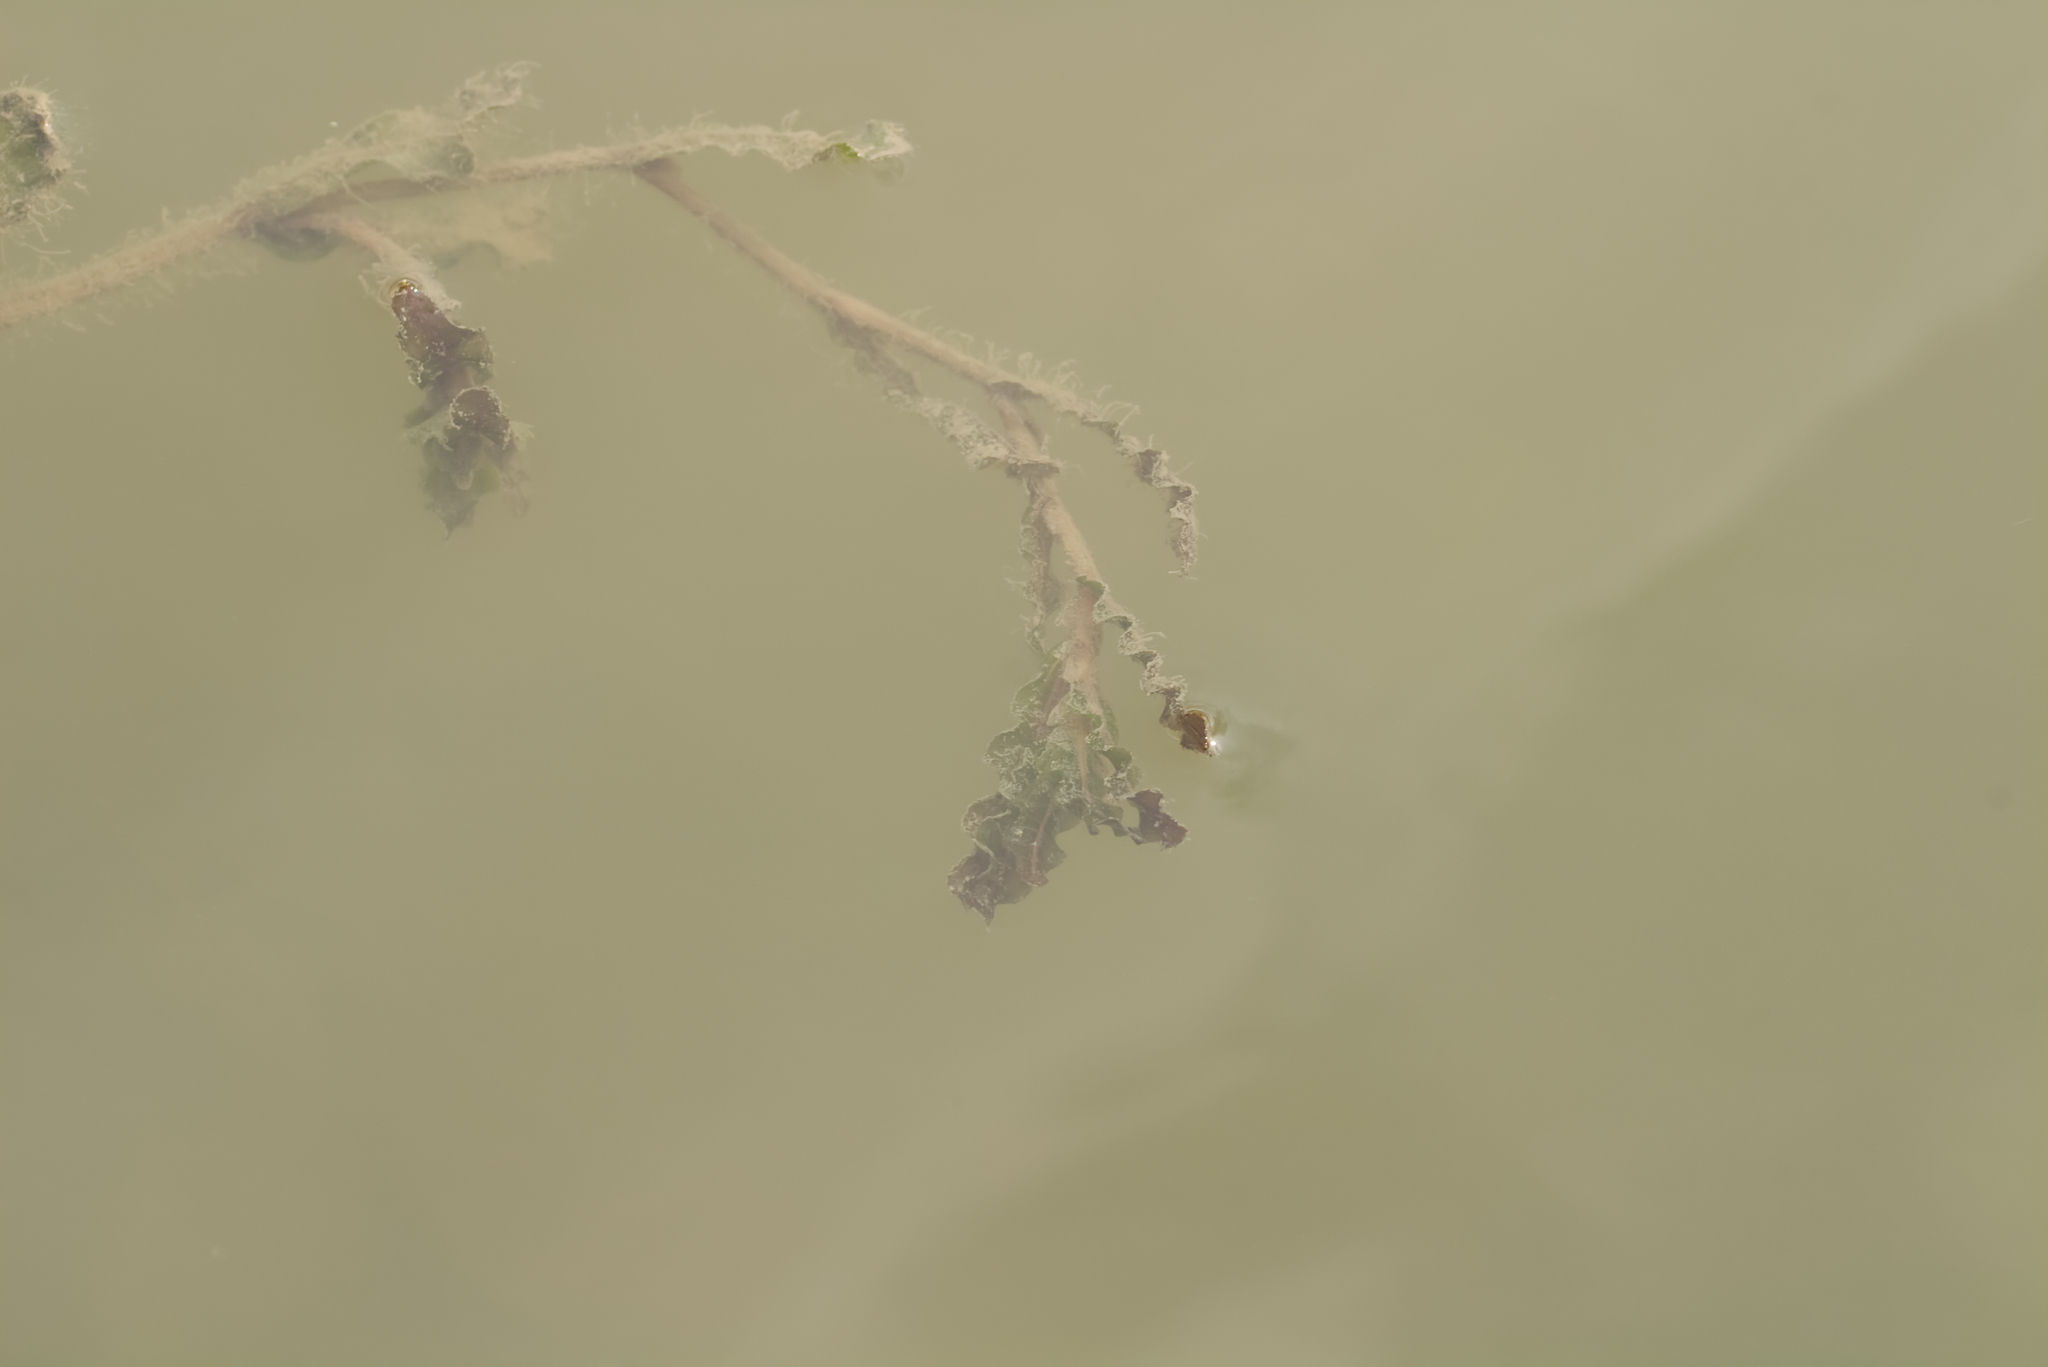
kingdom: Plantae
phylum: Tracheophyta
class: Liliopsida
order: Alismatales
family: Potamogetonaceae
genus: Potamogeton
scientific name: Potamogeton crispus
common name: Curled pondweed
